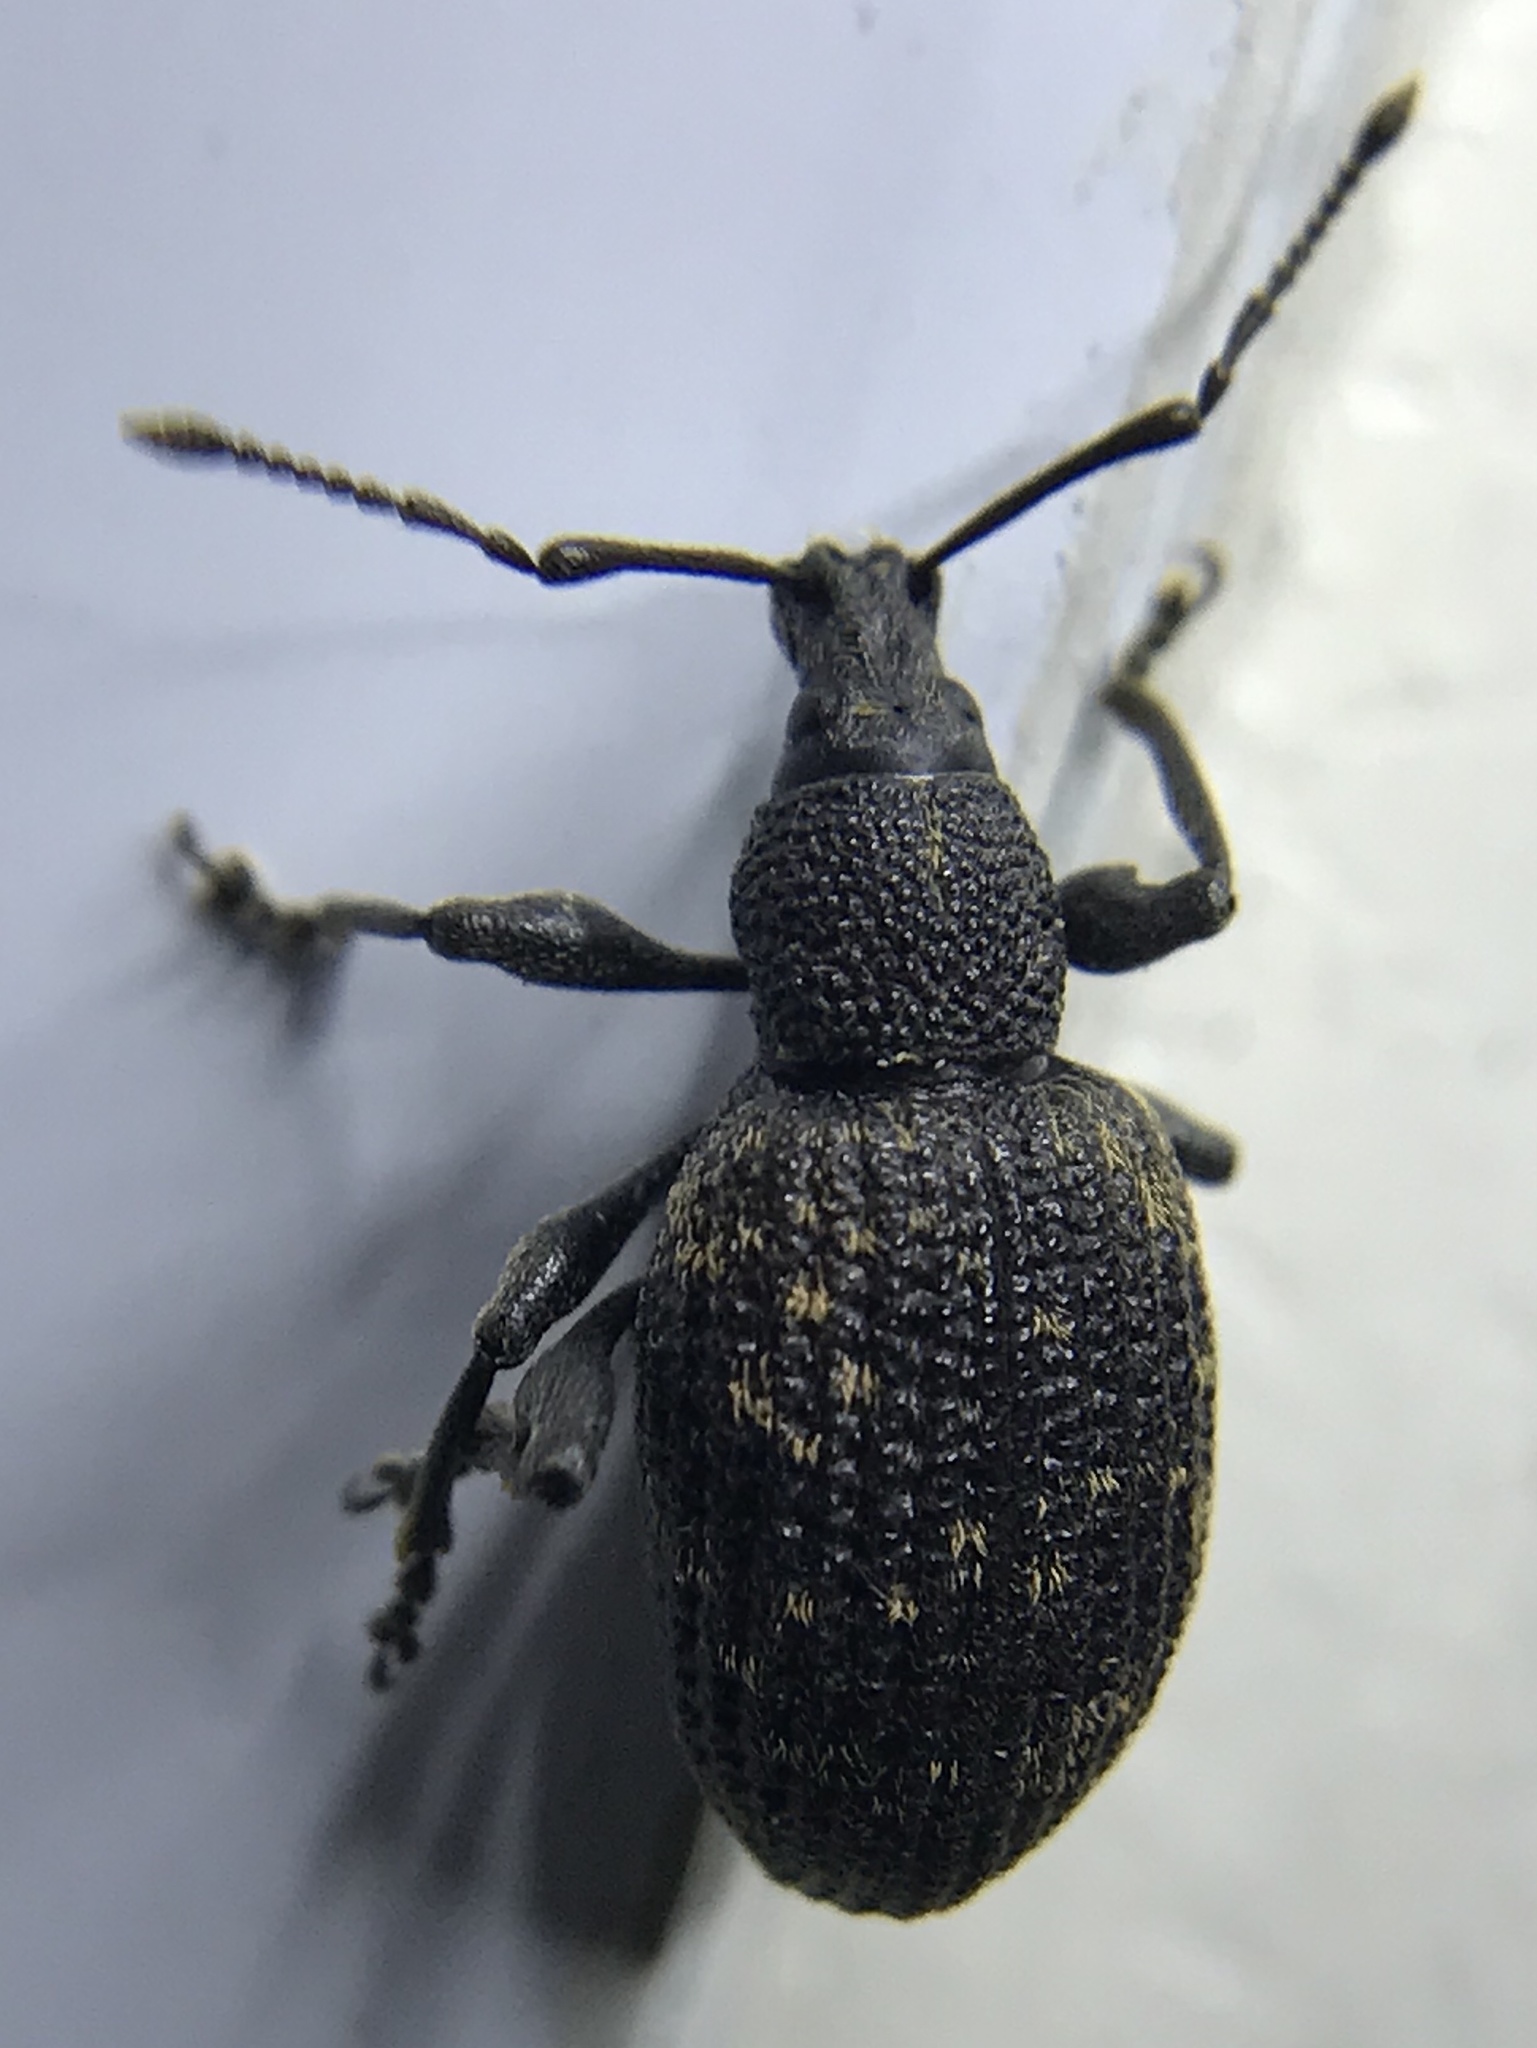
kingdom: Animalia
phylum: Arthropoda
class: Insecta
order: Coleoptera
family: Curculionidae
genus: Otiorhynchus
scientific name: Otiorhynchus sulcatus
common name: Black vine weevil
